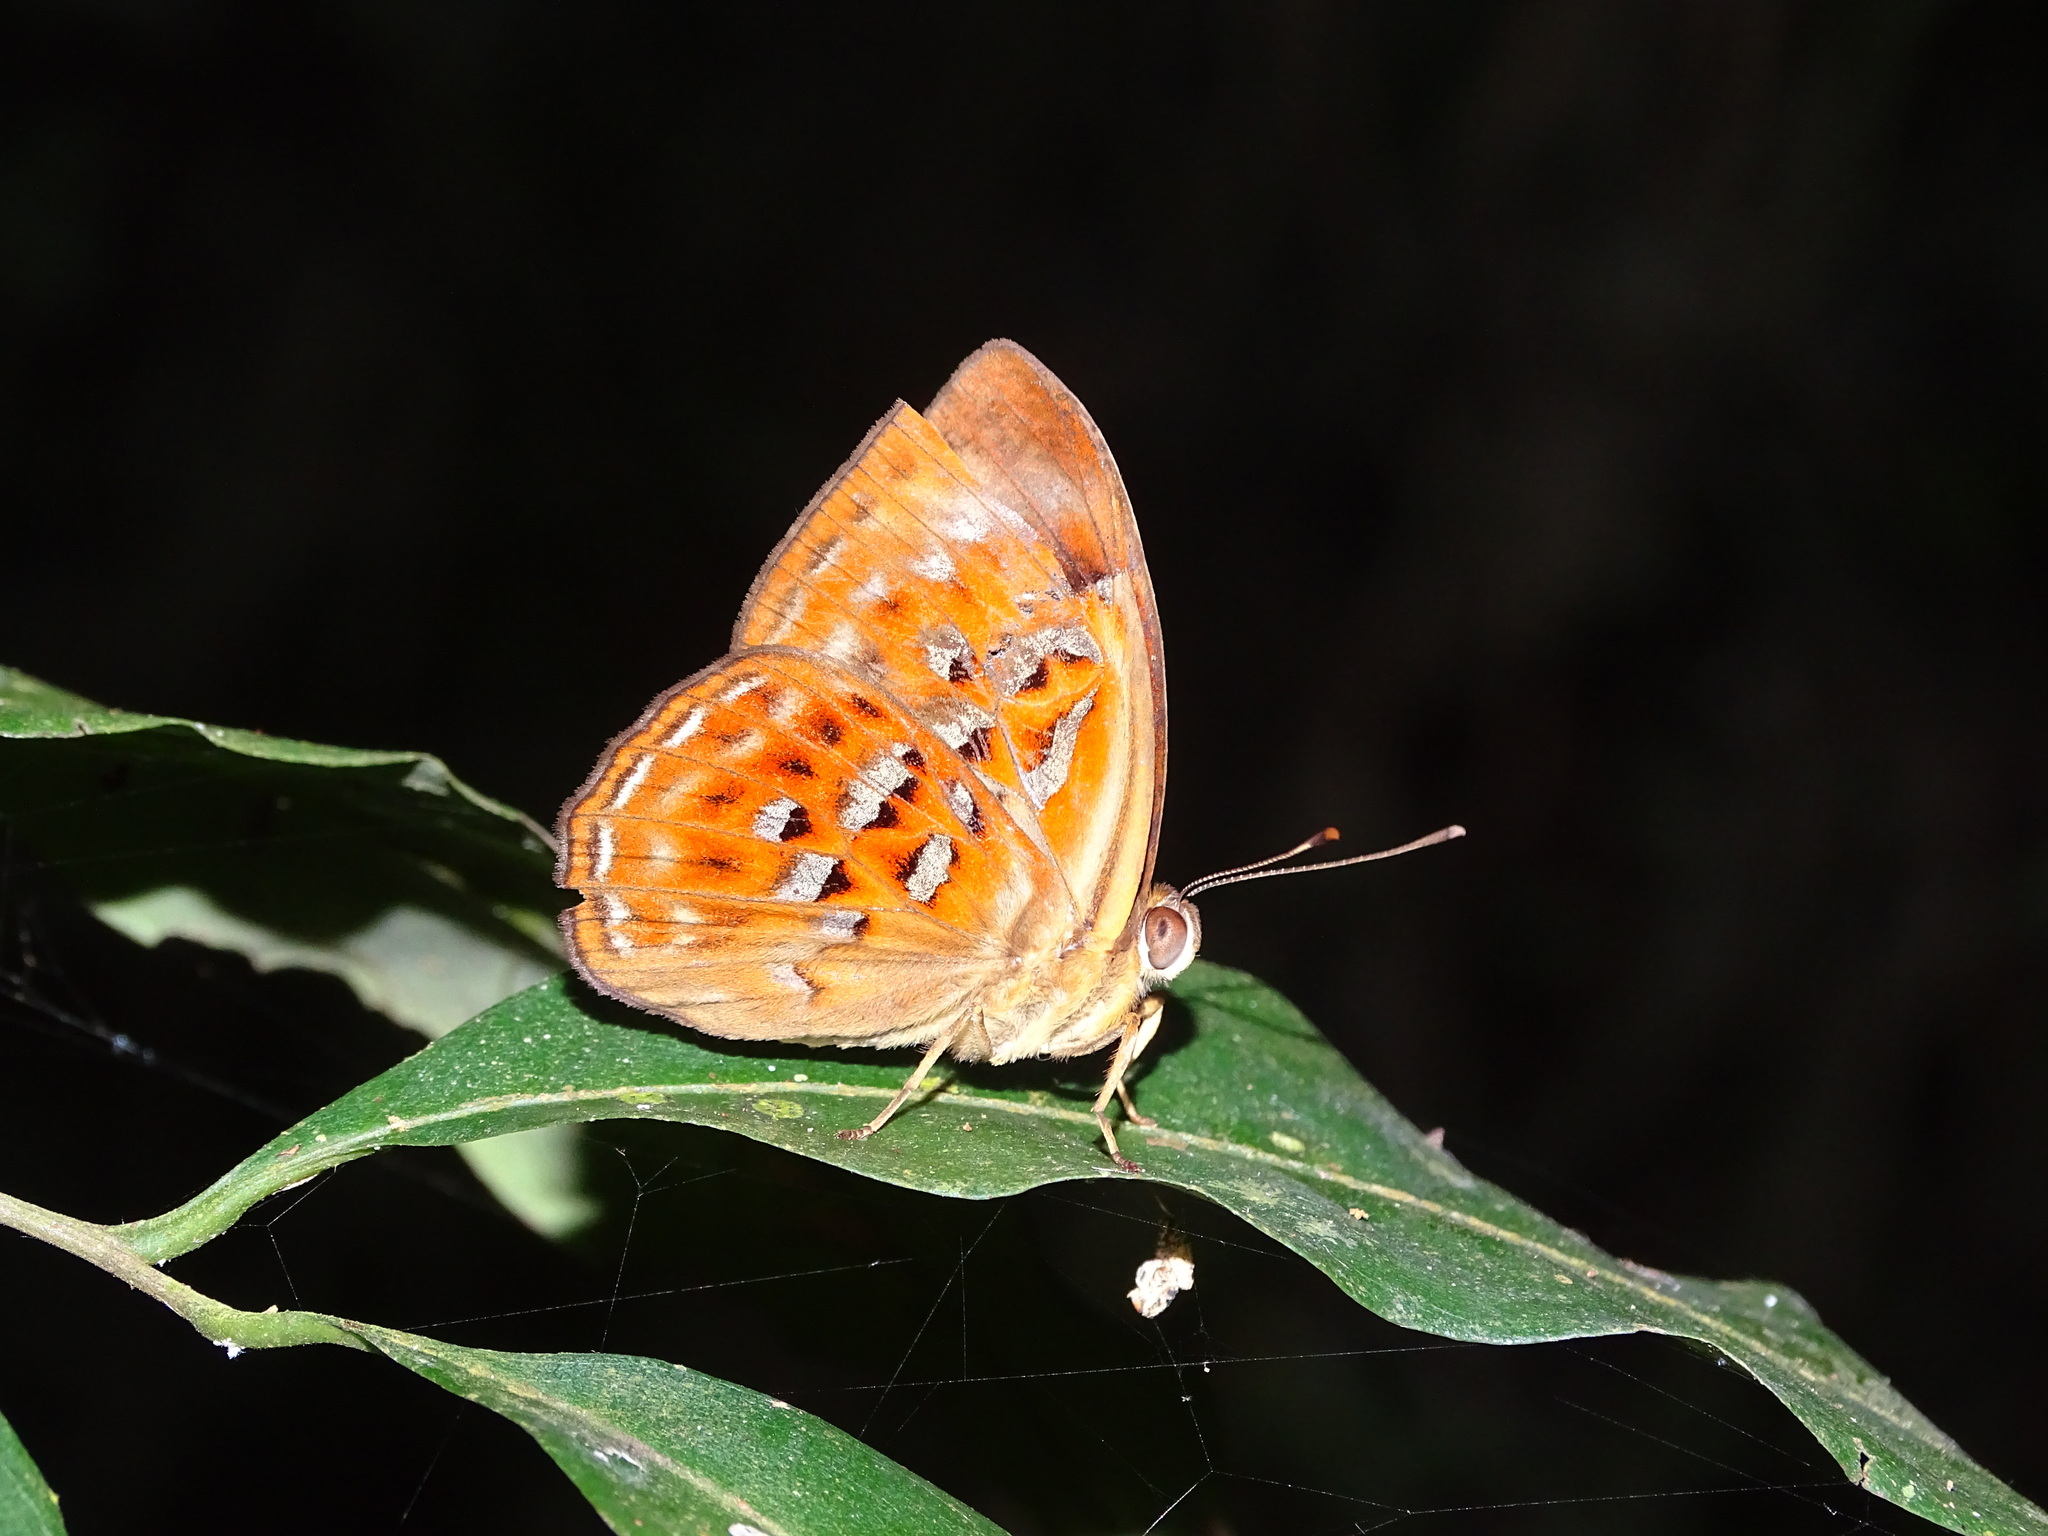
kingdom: Animalia
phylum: Arthropoda
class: Insecta
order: Lepidoptera
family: Erebidae
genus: Dysschema
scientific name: Dysschema
